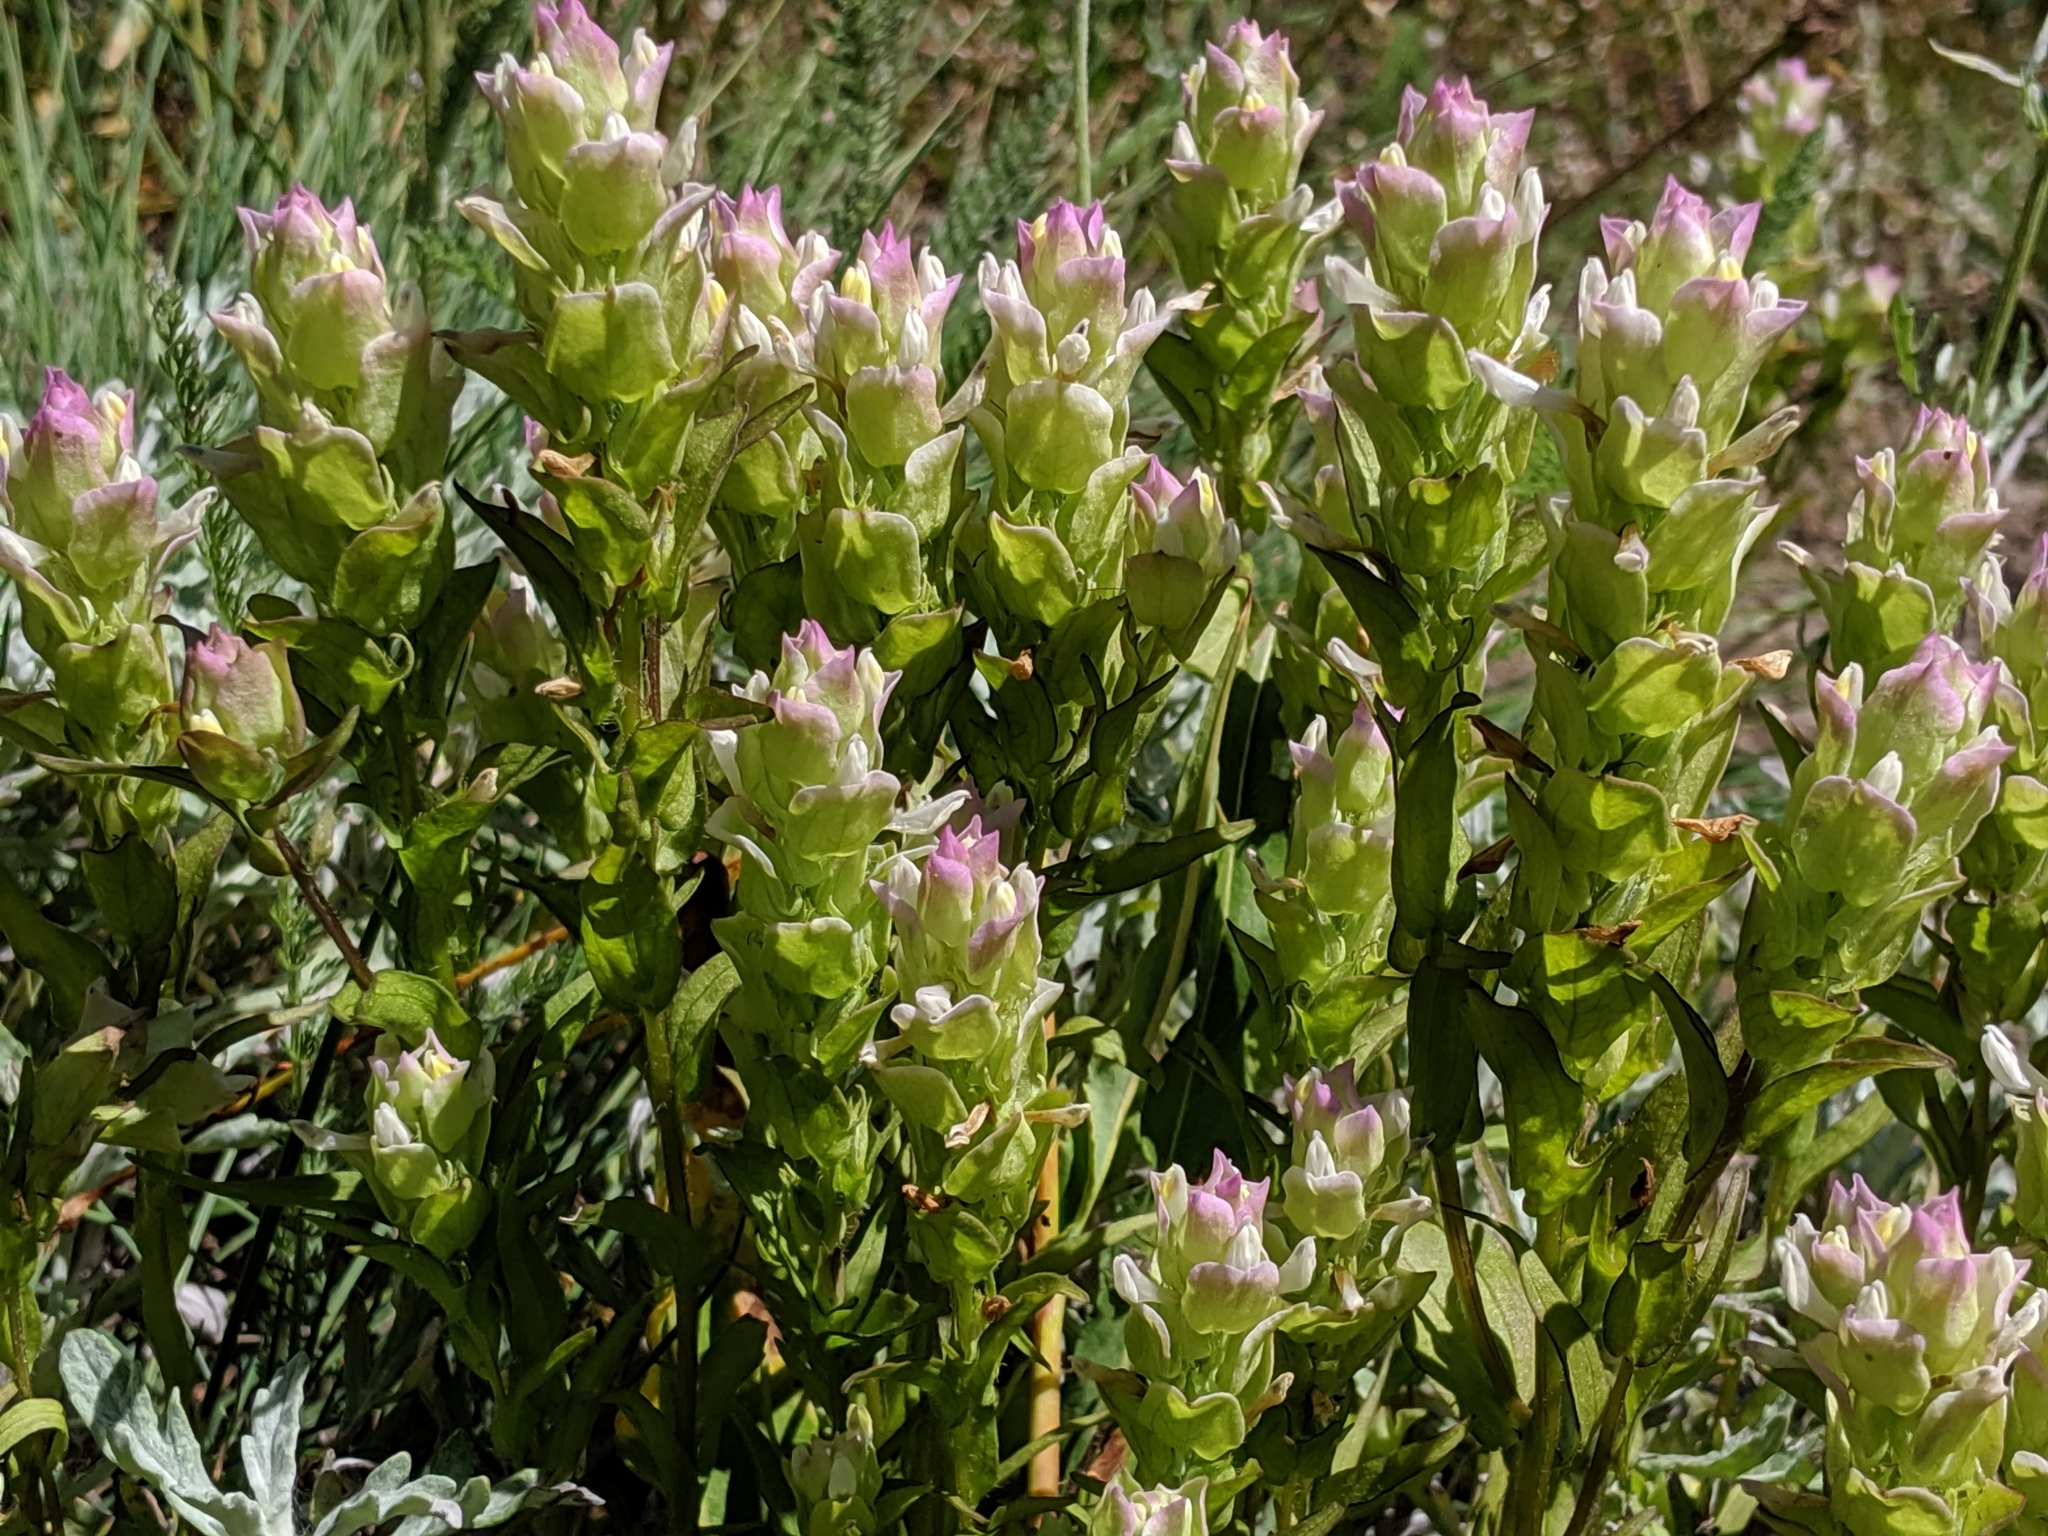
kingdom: Plantae
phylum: Tracheophyta
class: Magnoliopsida
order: Lamiales
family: Orobanchaceae
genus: Orthocarpus
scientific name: Orthocarpus imbricatus
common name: Mountain owl's-clover
